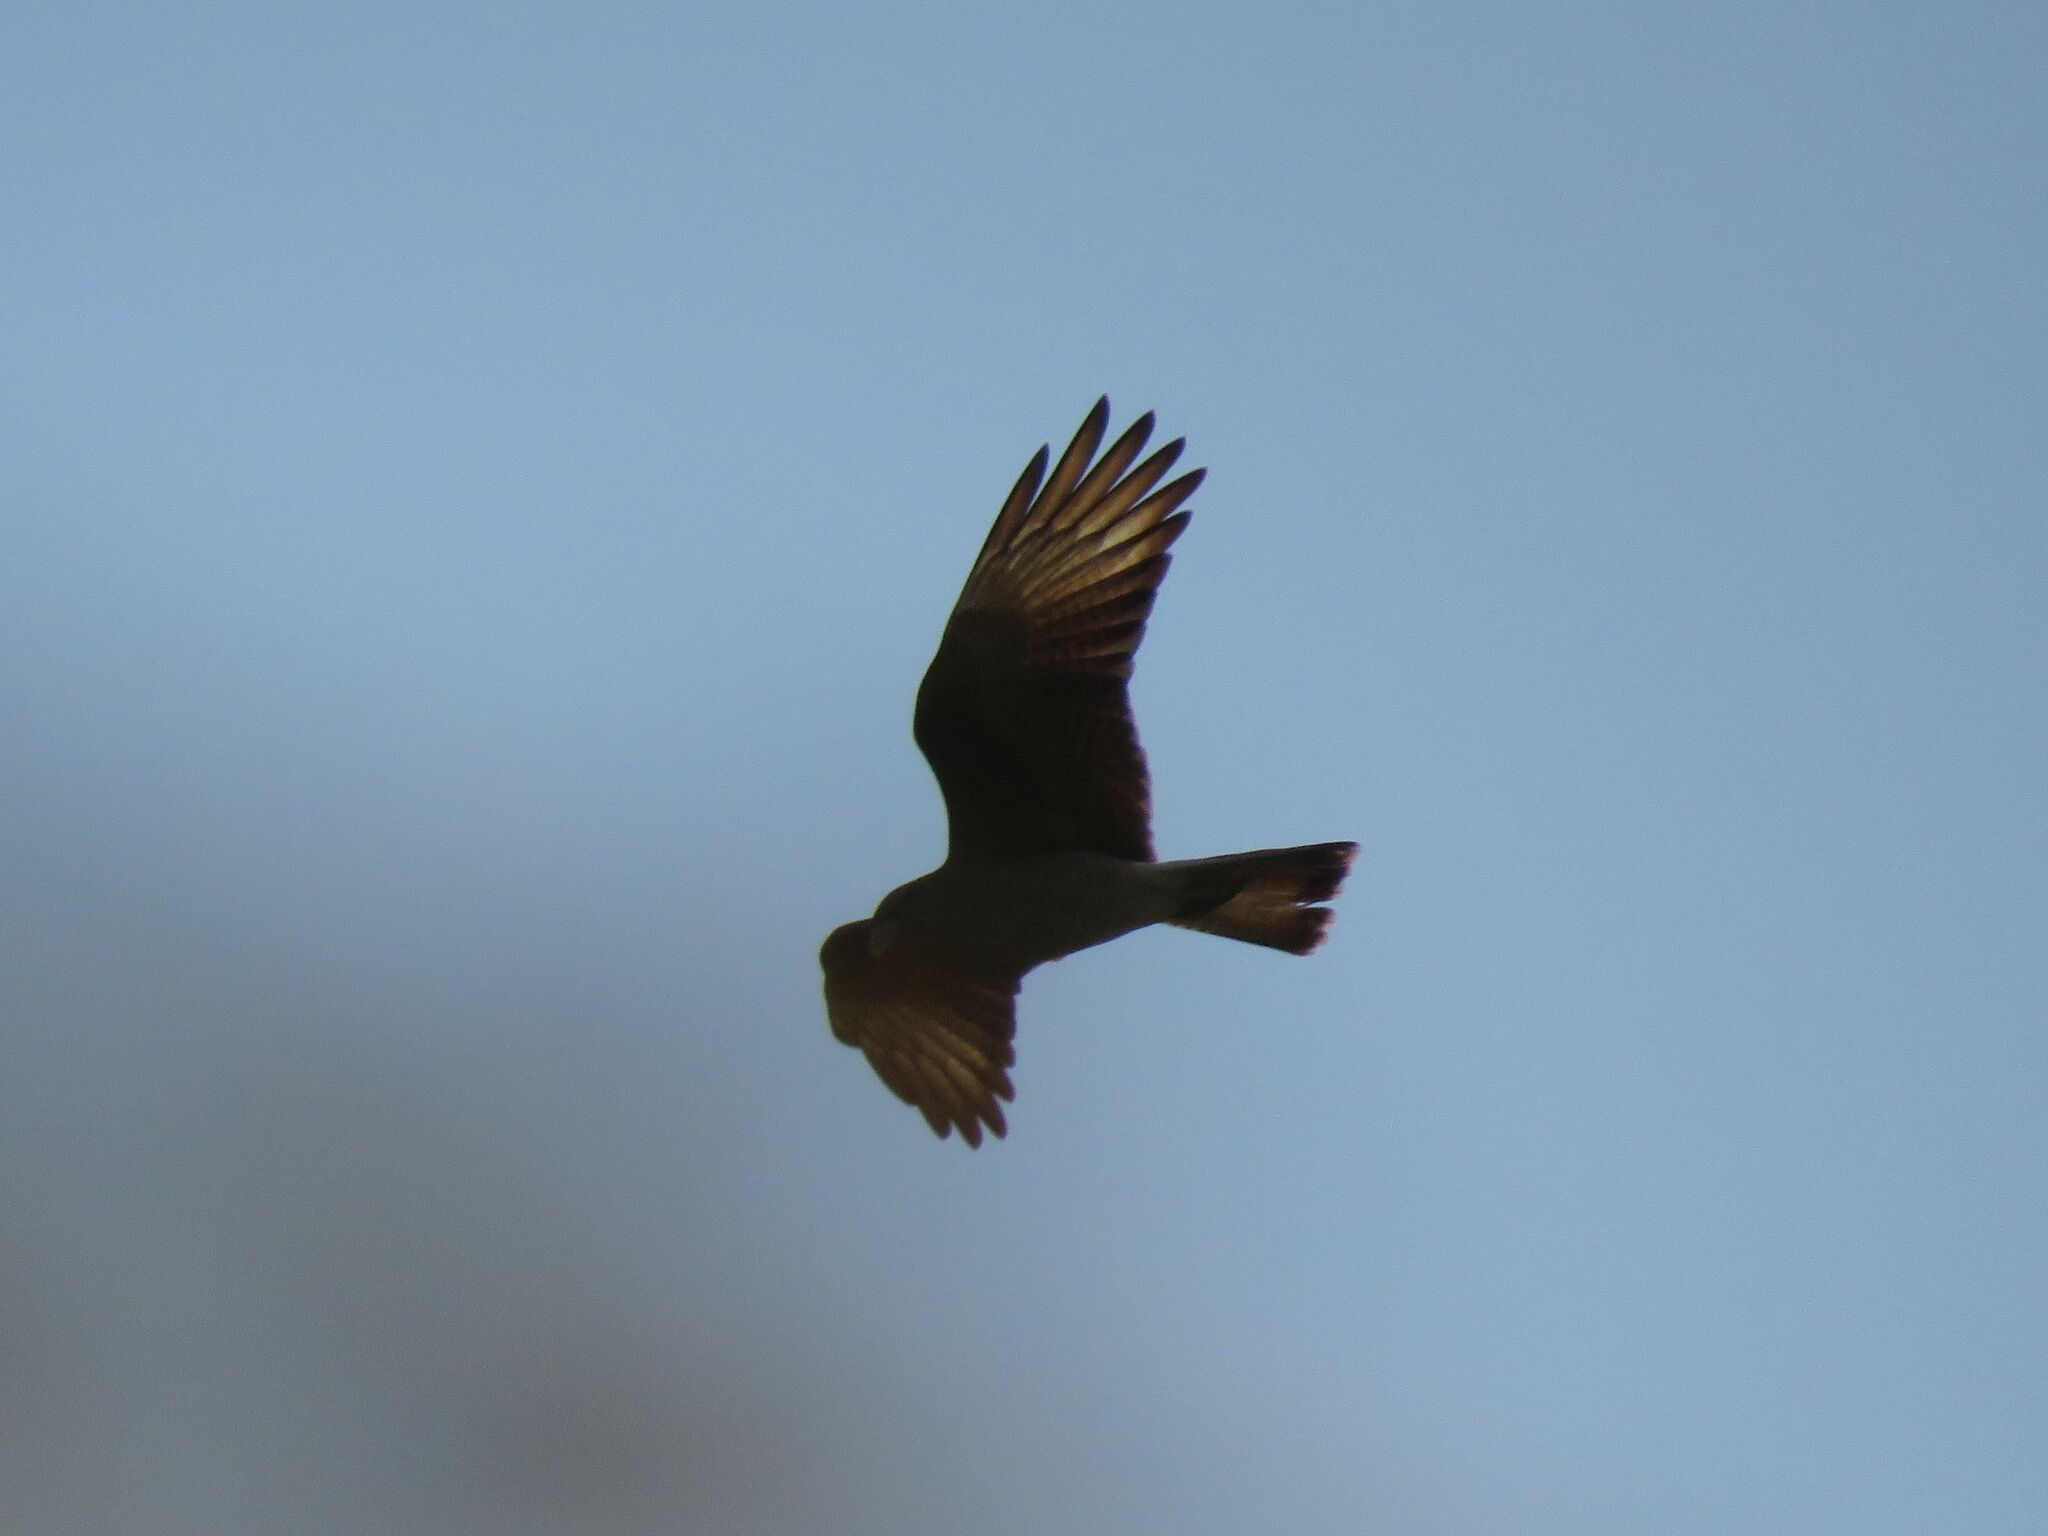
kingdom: Animalia
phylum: Chordata
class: Aves
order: Falconiformes
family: Falconidae
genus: Daptrius
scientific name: Daptrius
